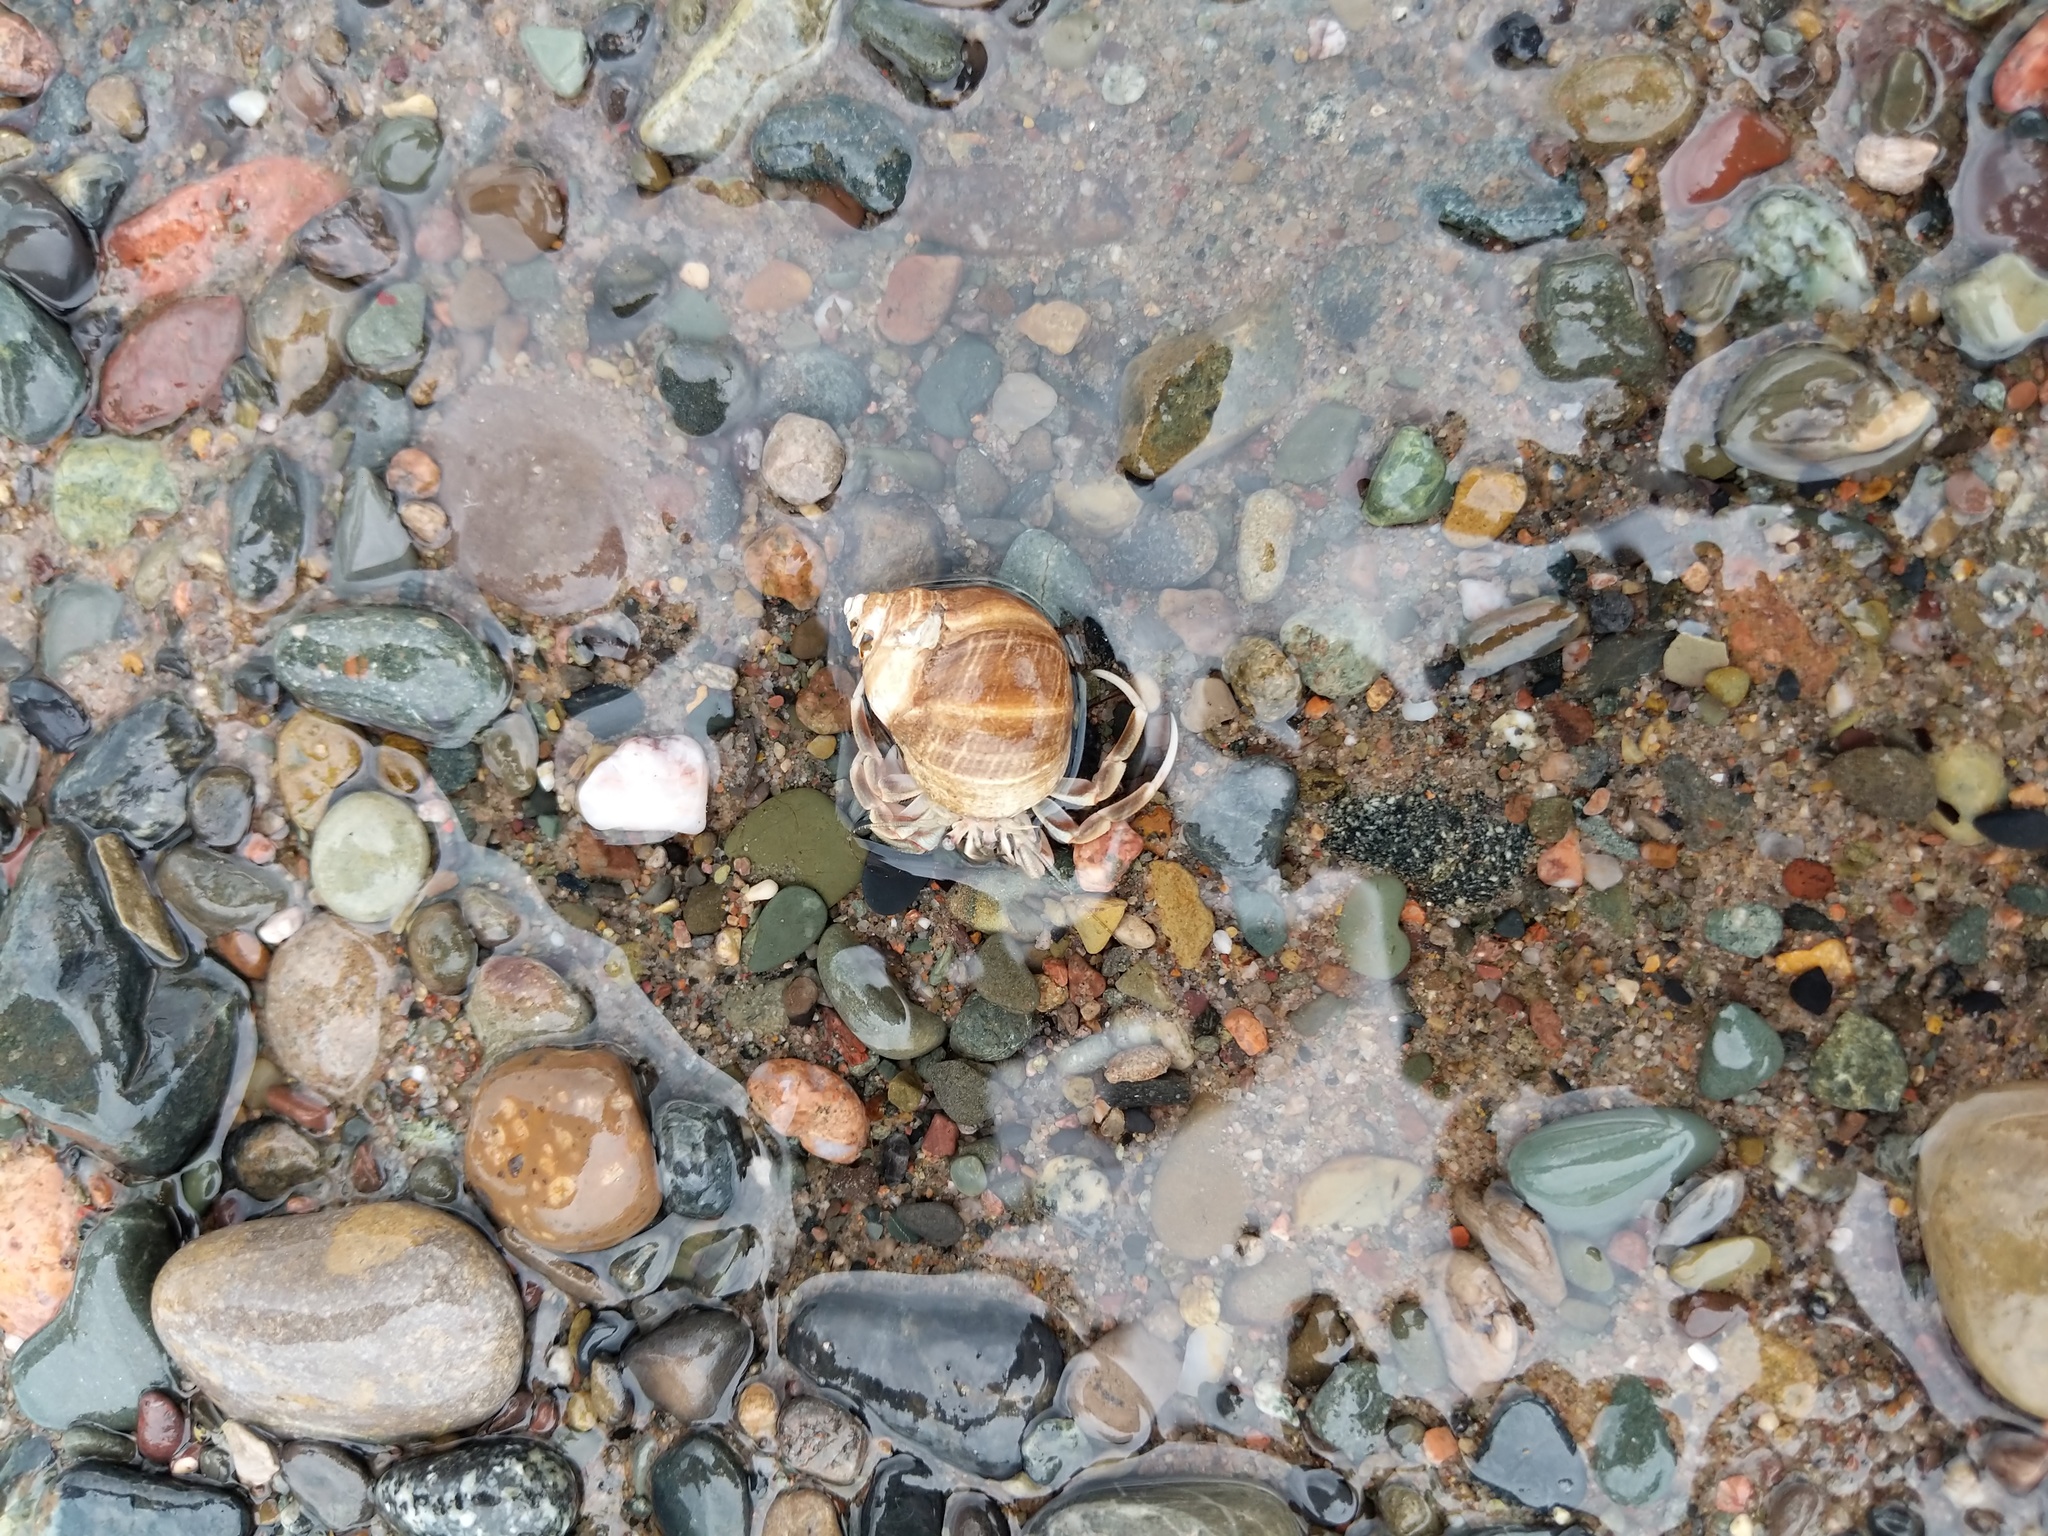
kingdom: Animalia
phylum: Arthropoda
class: Malacostraca
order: Decapoda
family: Paguridae
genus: Pagurus
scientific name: Pagurus longicarpus
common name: Long-armed hermit crab
